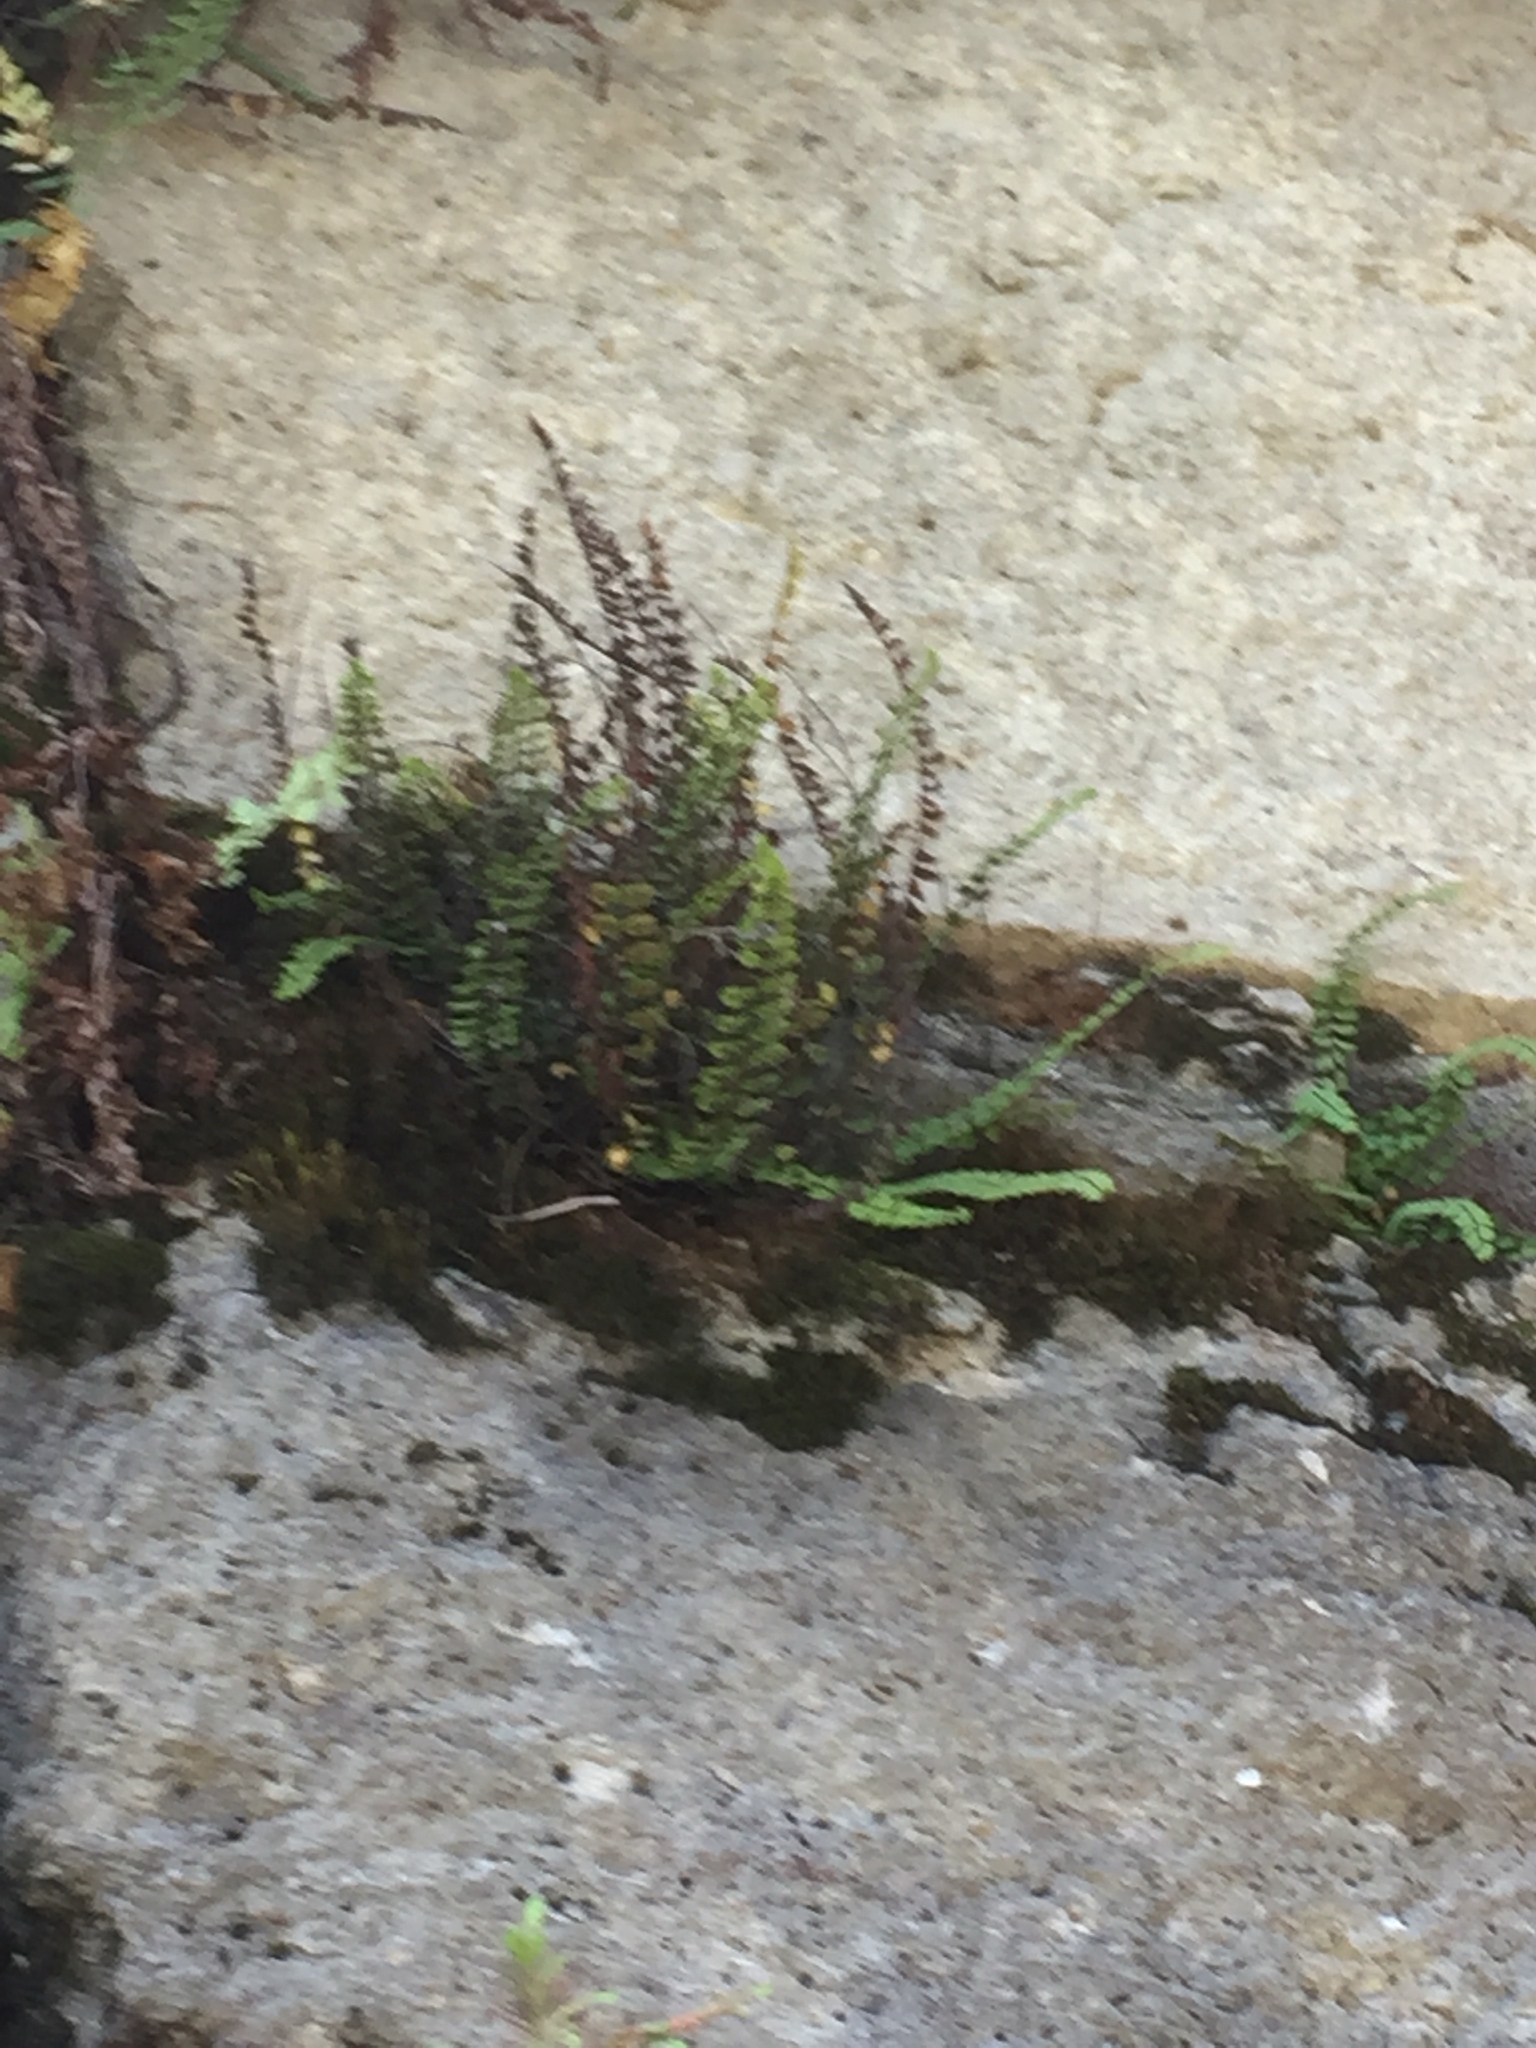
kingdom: Plantae
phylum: Tracheophyta
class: Polypodiopsida
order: Polypodiales
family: Aspleniaceae
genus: Asplenium
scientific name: Asplenium trichomanes
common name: Maidenhair spleenwort
